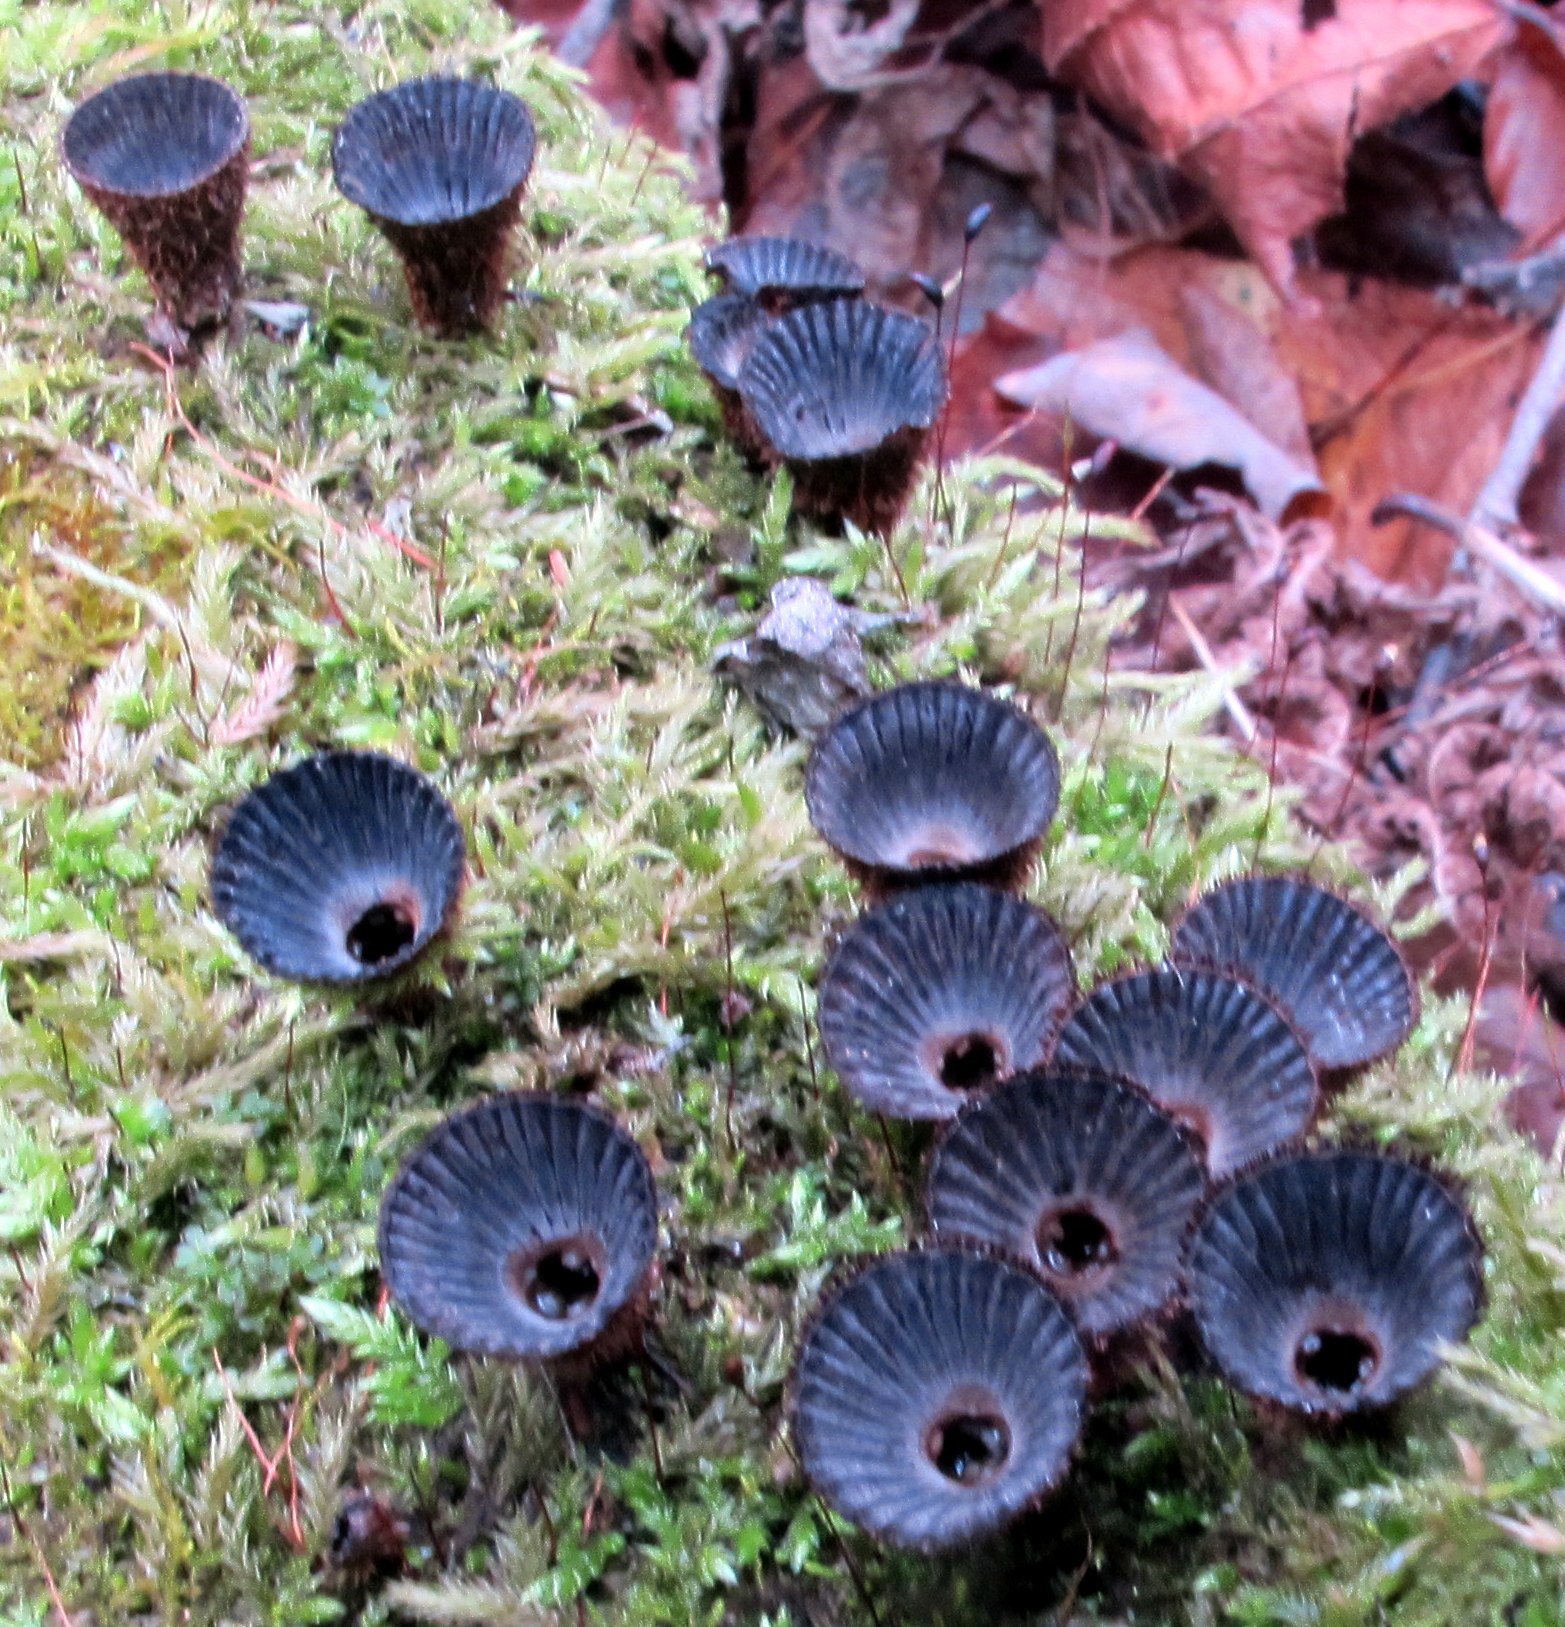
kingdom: Fungi
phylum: Basidiomycota
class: Agaricomycetes
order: Agaricales
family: Agaricaceae
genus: Cyathus
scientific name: Cyathus striatus
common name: Fluted bird's nest
